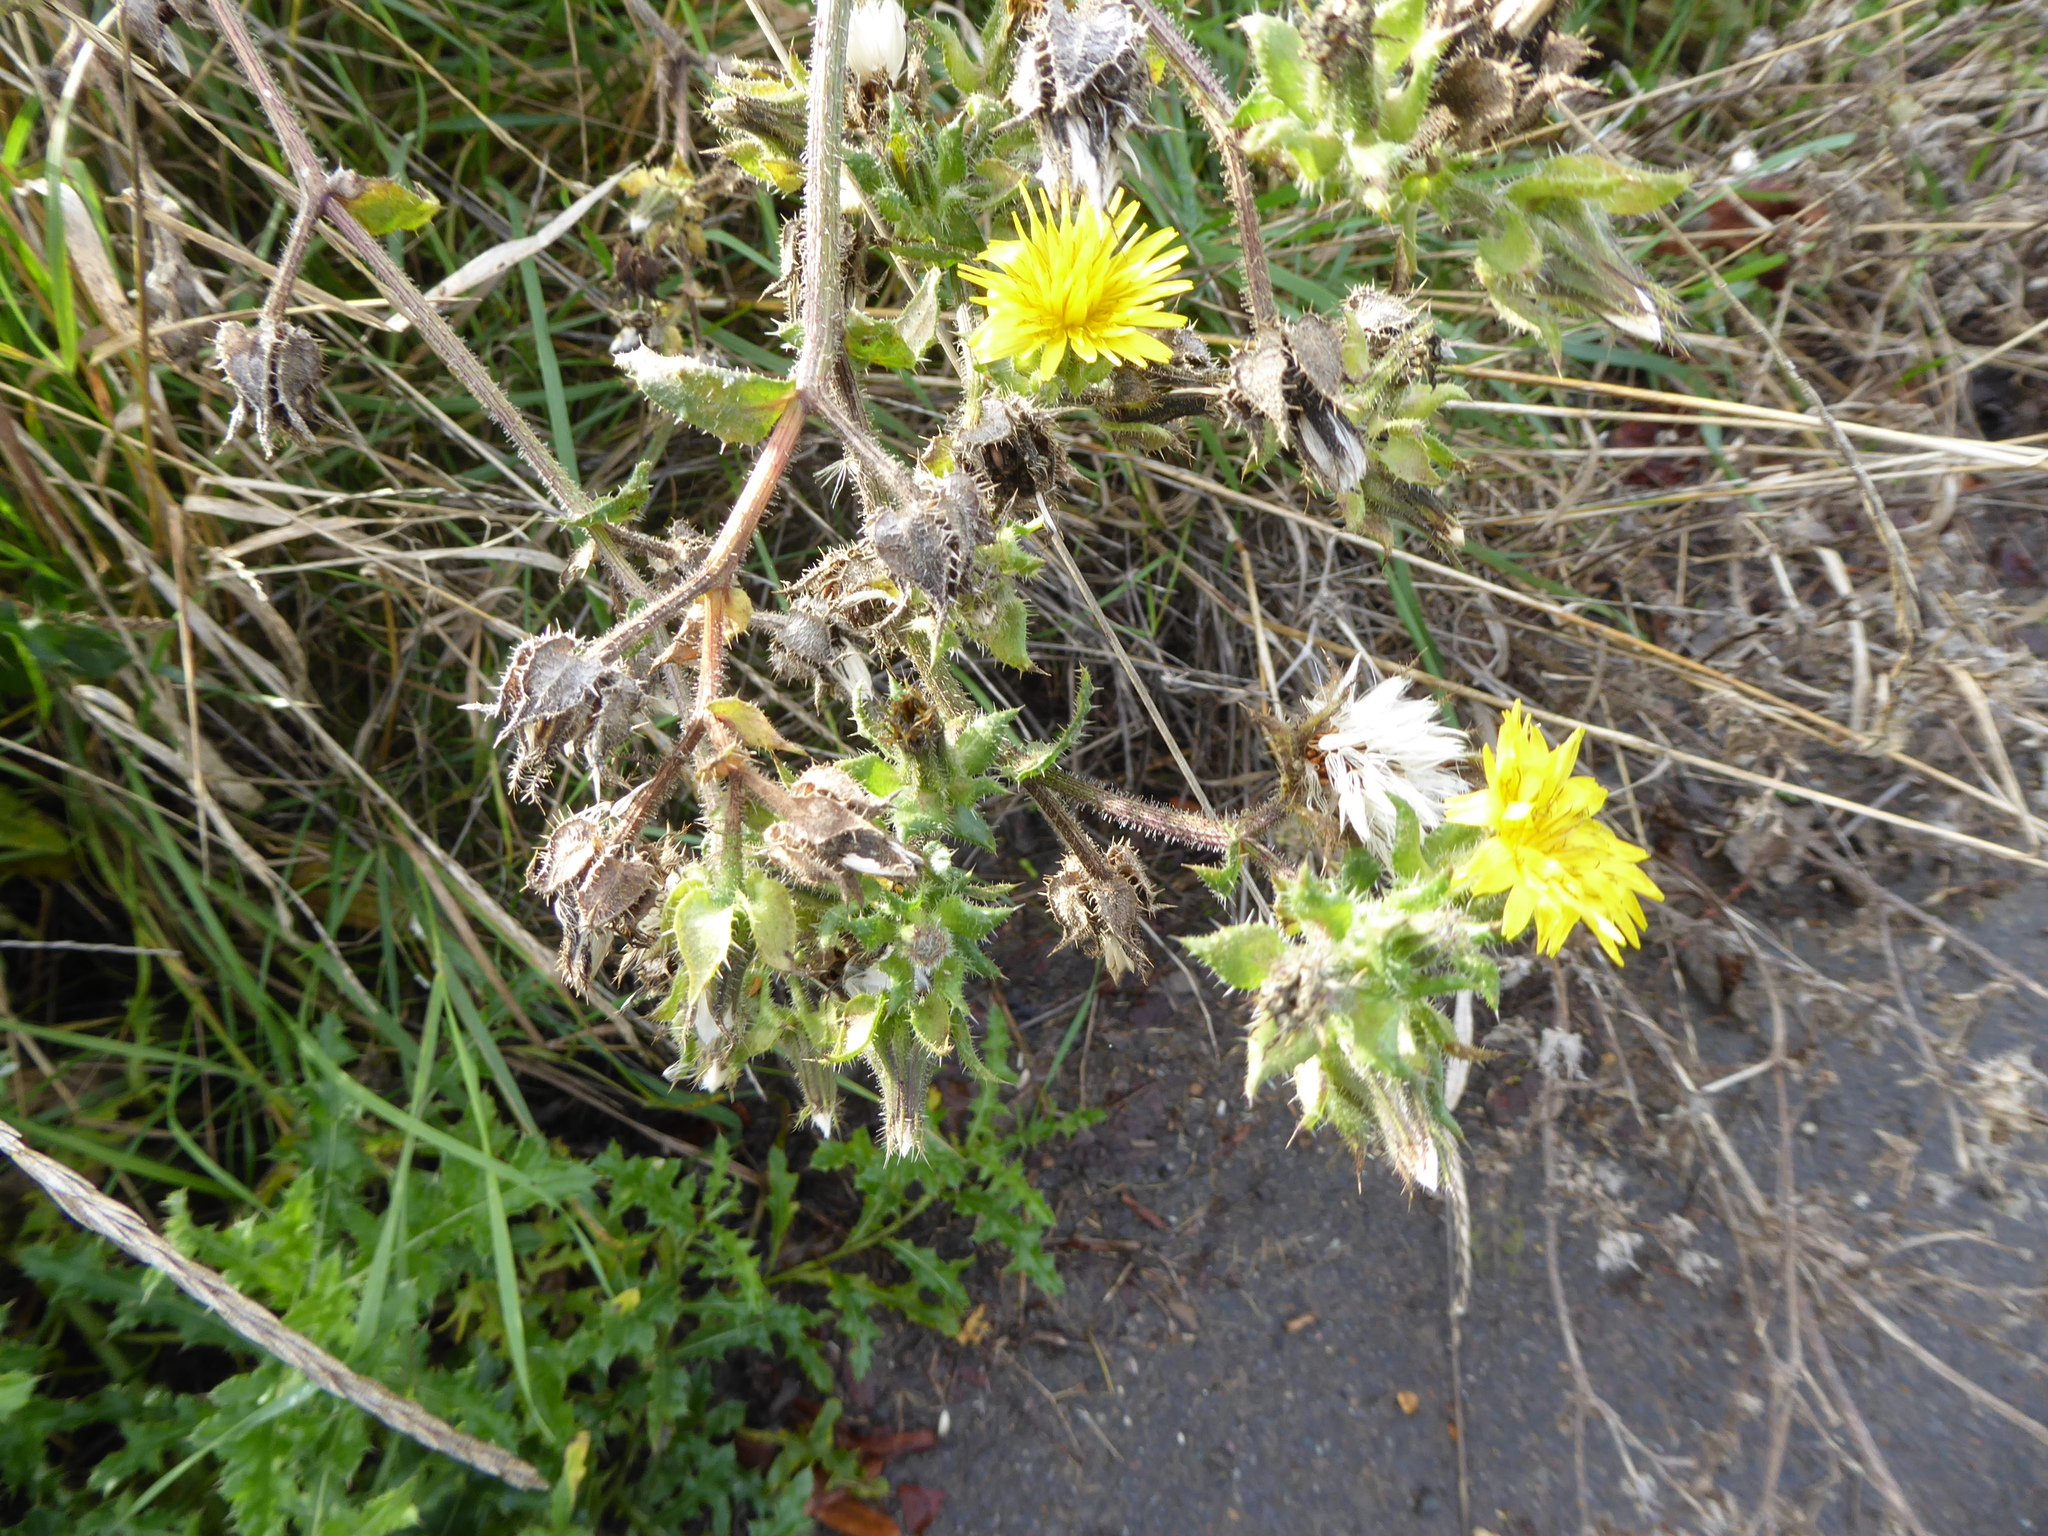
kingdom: Plantae
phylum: Tracheophyta
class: Magnoliopsida
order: Asterales
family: Asteraceae
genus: Helminthotheca
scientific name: Helminthotheca echioides
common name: Ox-tongue
